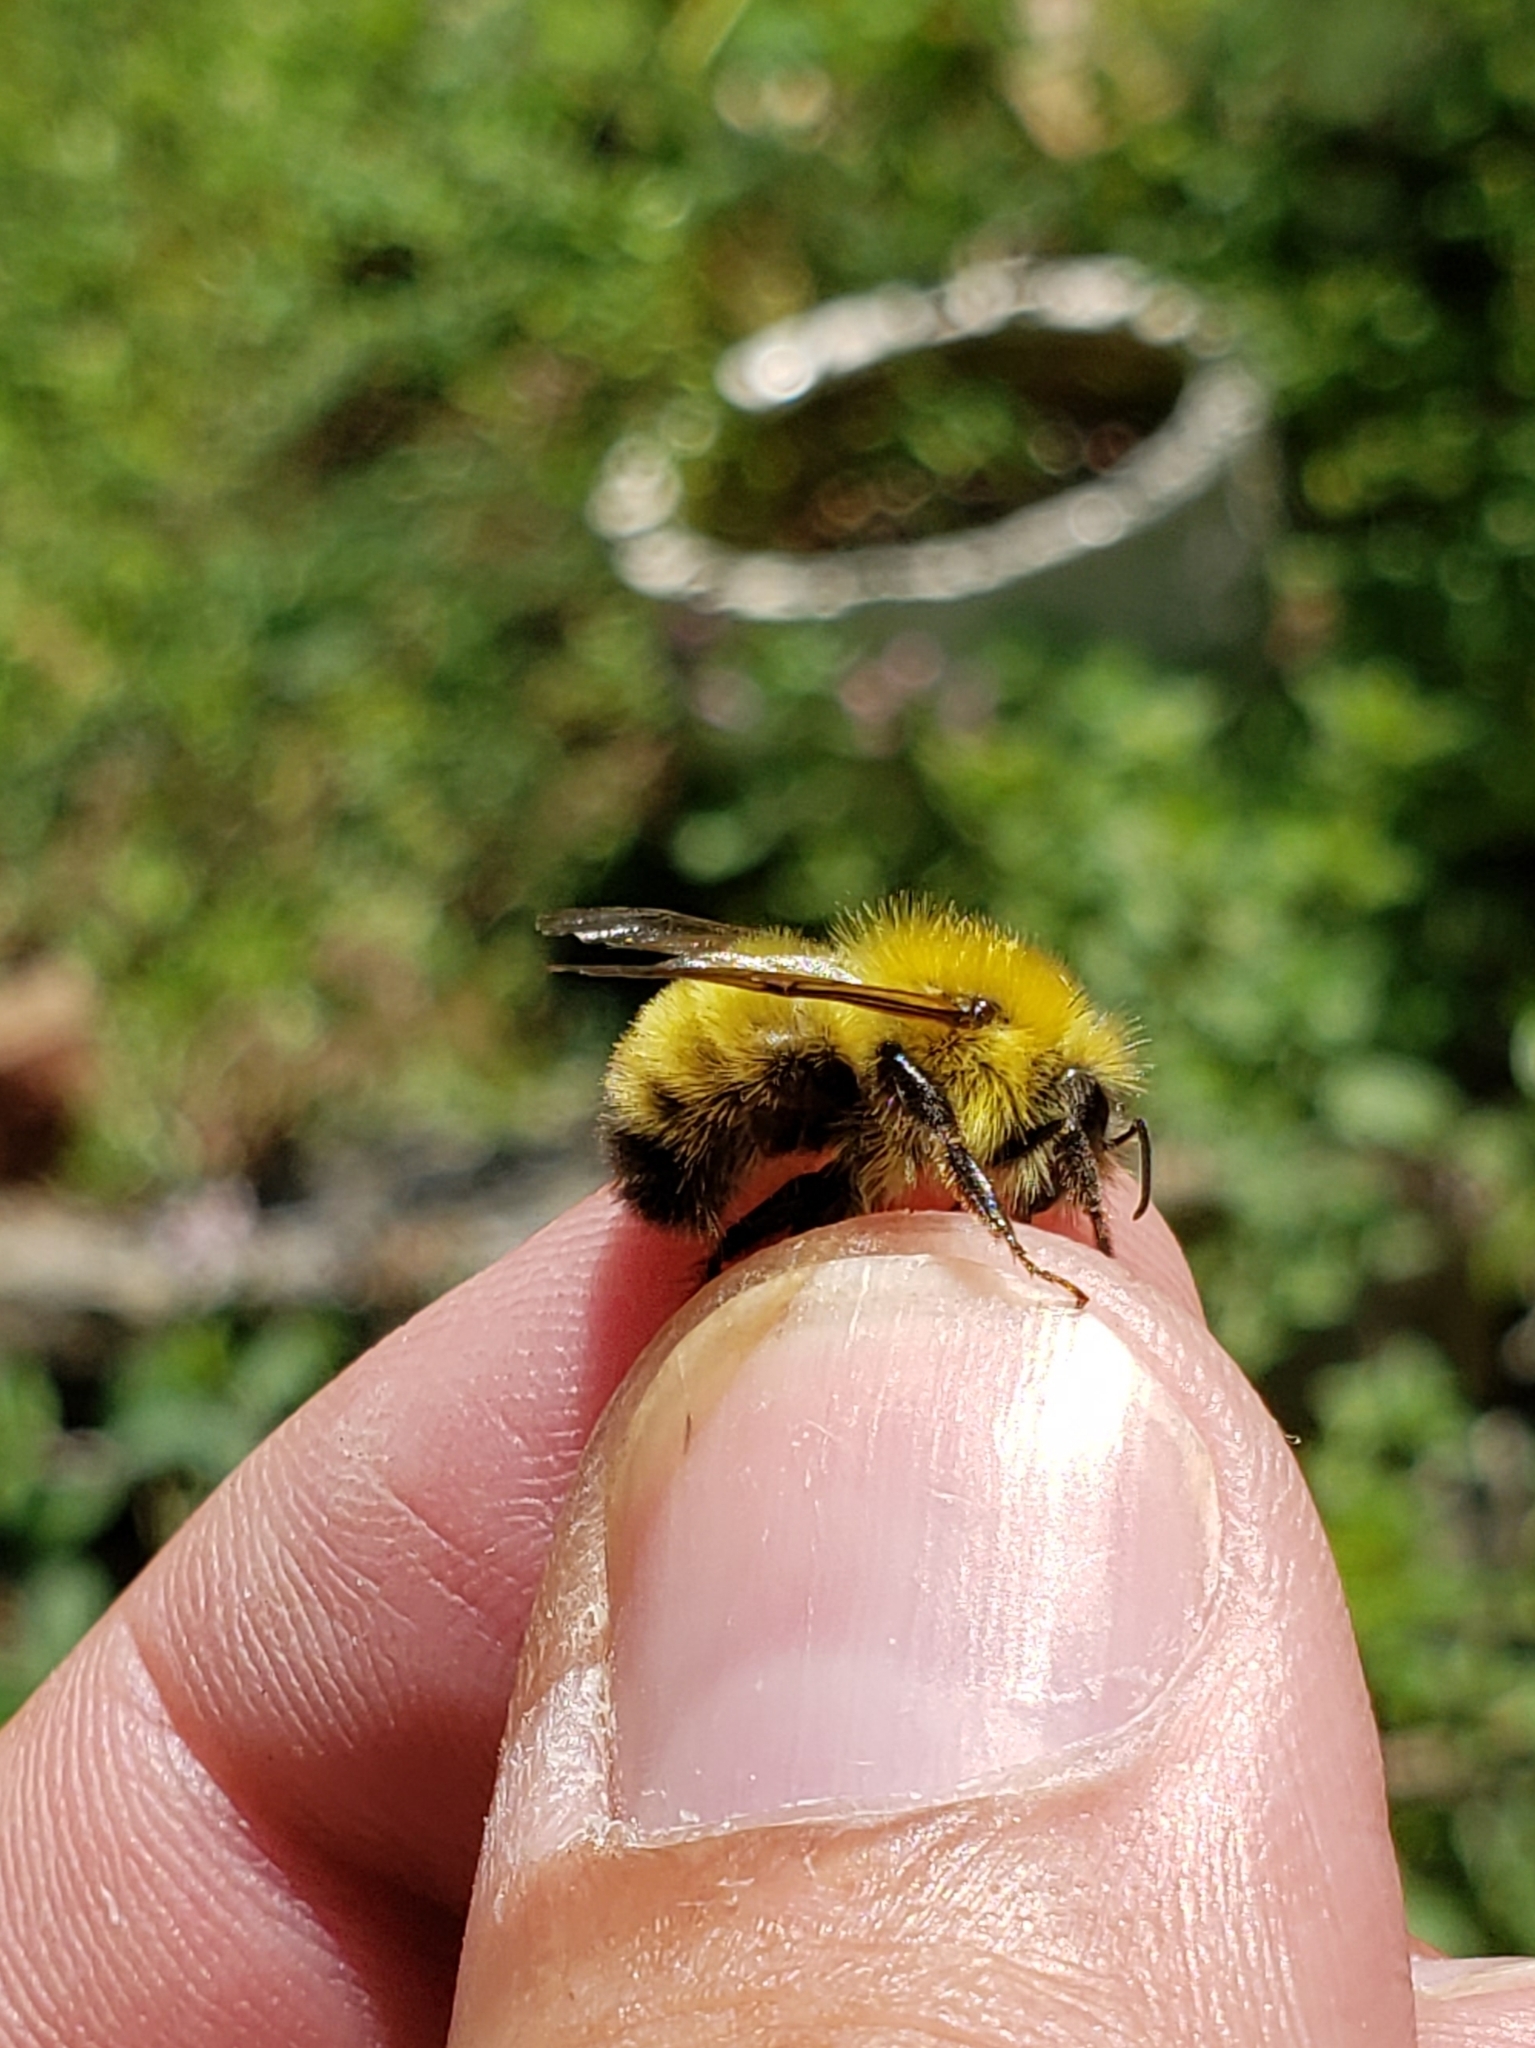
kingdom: Animalia
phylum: Arthropoda
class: Insecta
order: Hymenoptera
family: Apidae
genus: Bombus
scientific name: Bombus perplexus
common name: Confusing bumble bee
